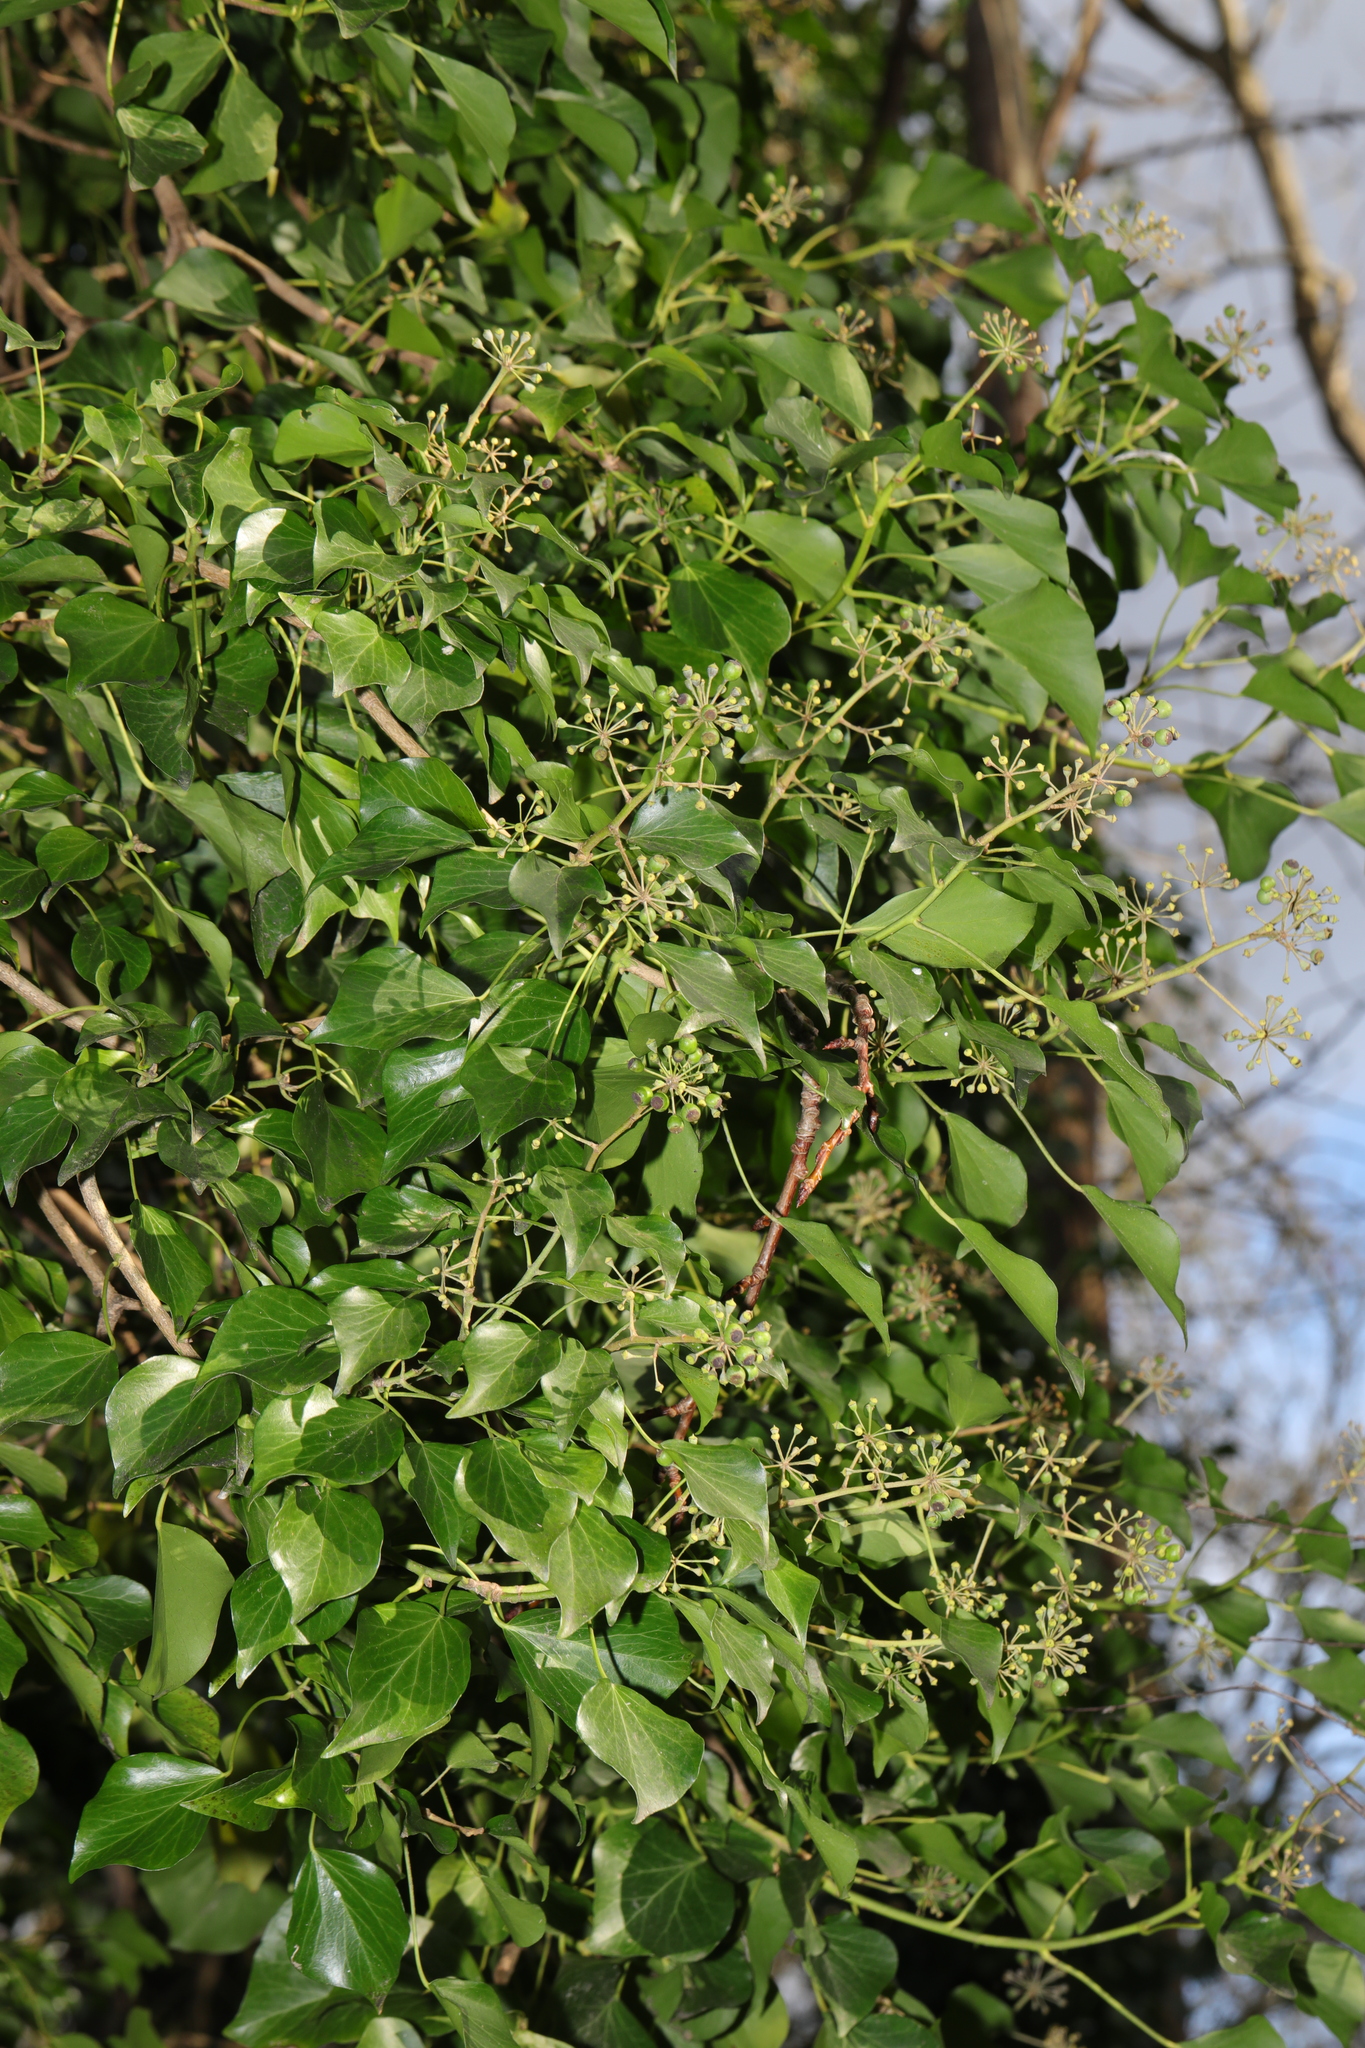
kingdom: Plantae
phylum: Tracheophyta
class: Magnoliopsida
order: Apiales
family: Araliaceae
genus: Hedera
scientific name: Hedera helix
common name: Ivy
